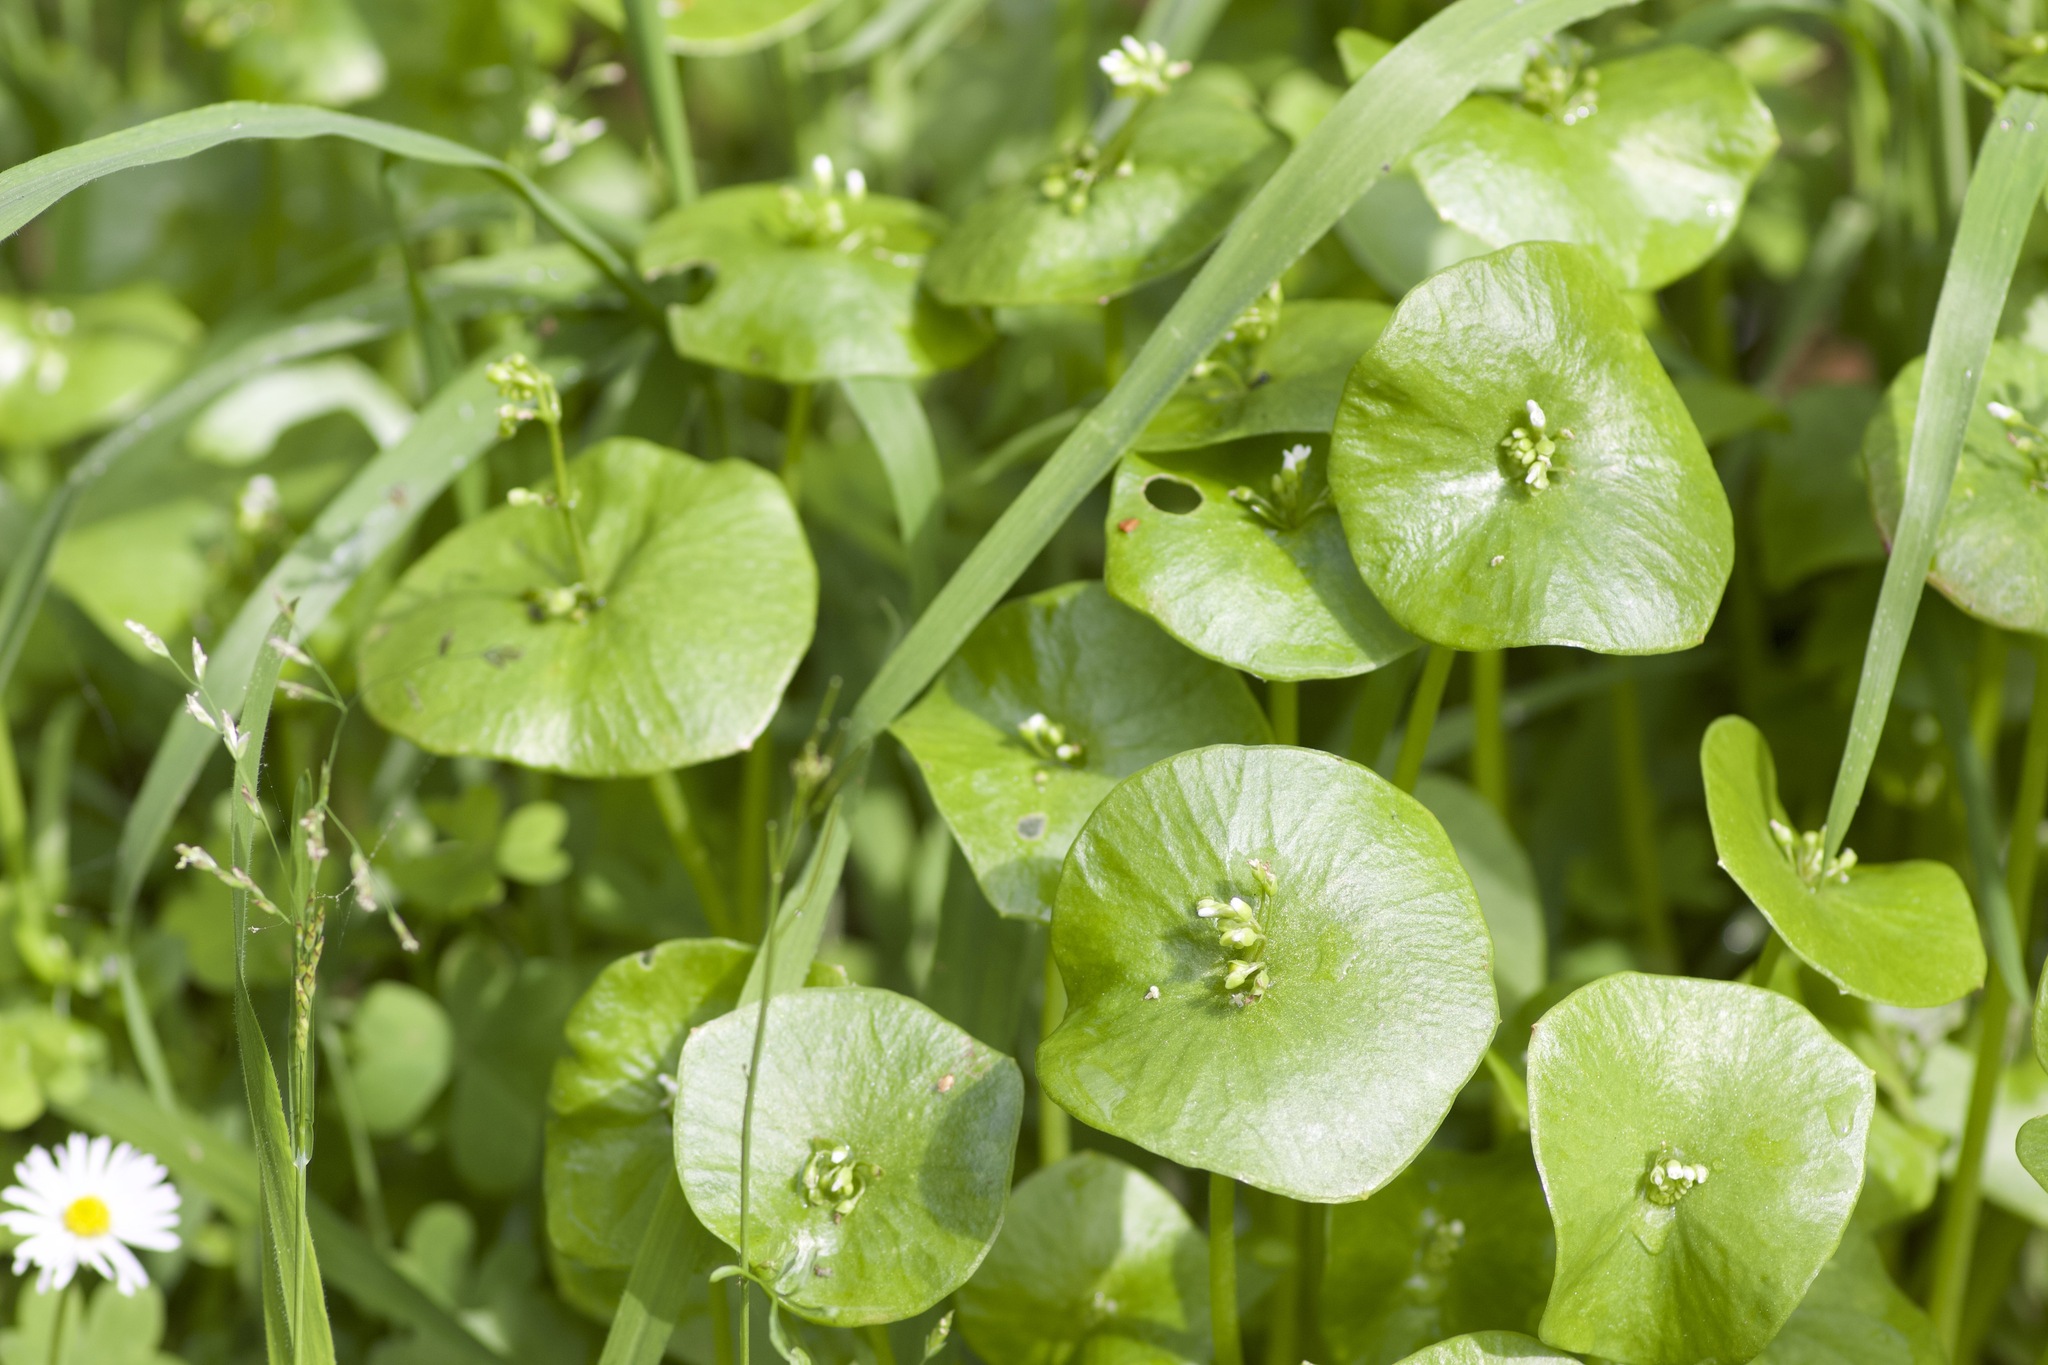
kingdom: Plantae
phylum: Tracheophyta
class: Magnoliopsida
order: Caryophyllales
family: Montiaceae
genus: Claytonia
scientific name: Claytonia perfoliata
